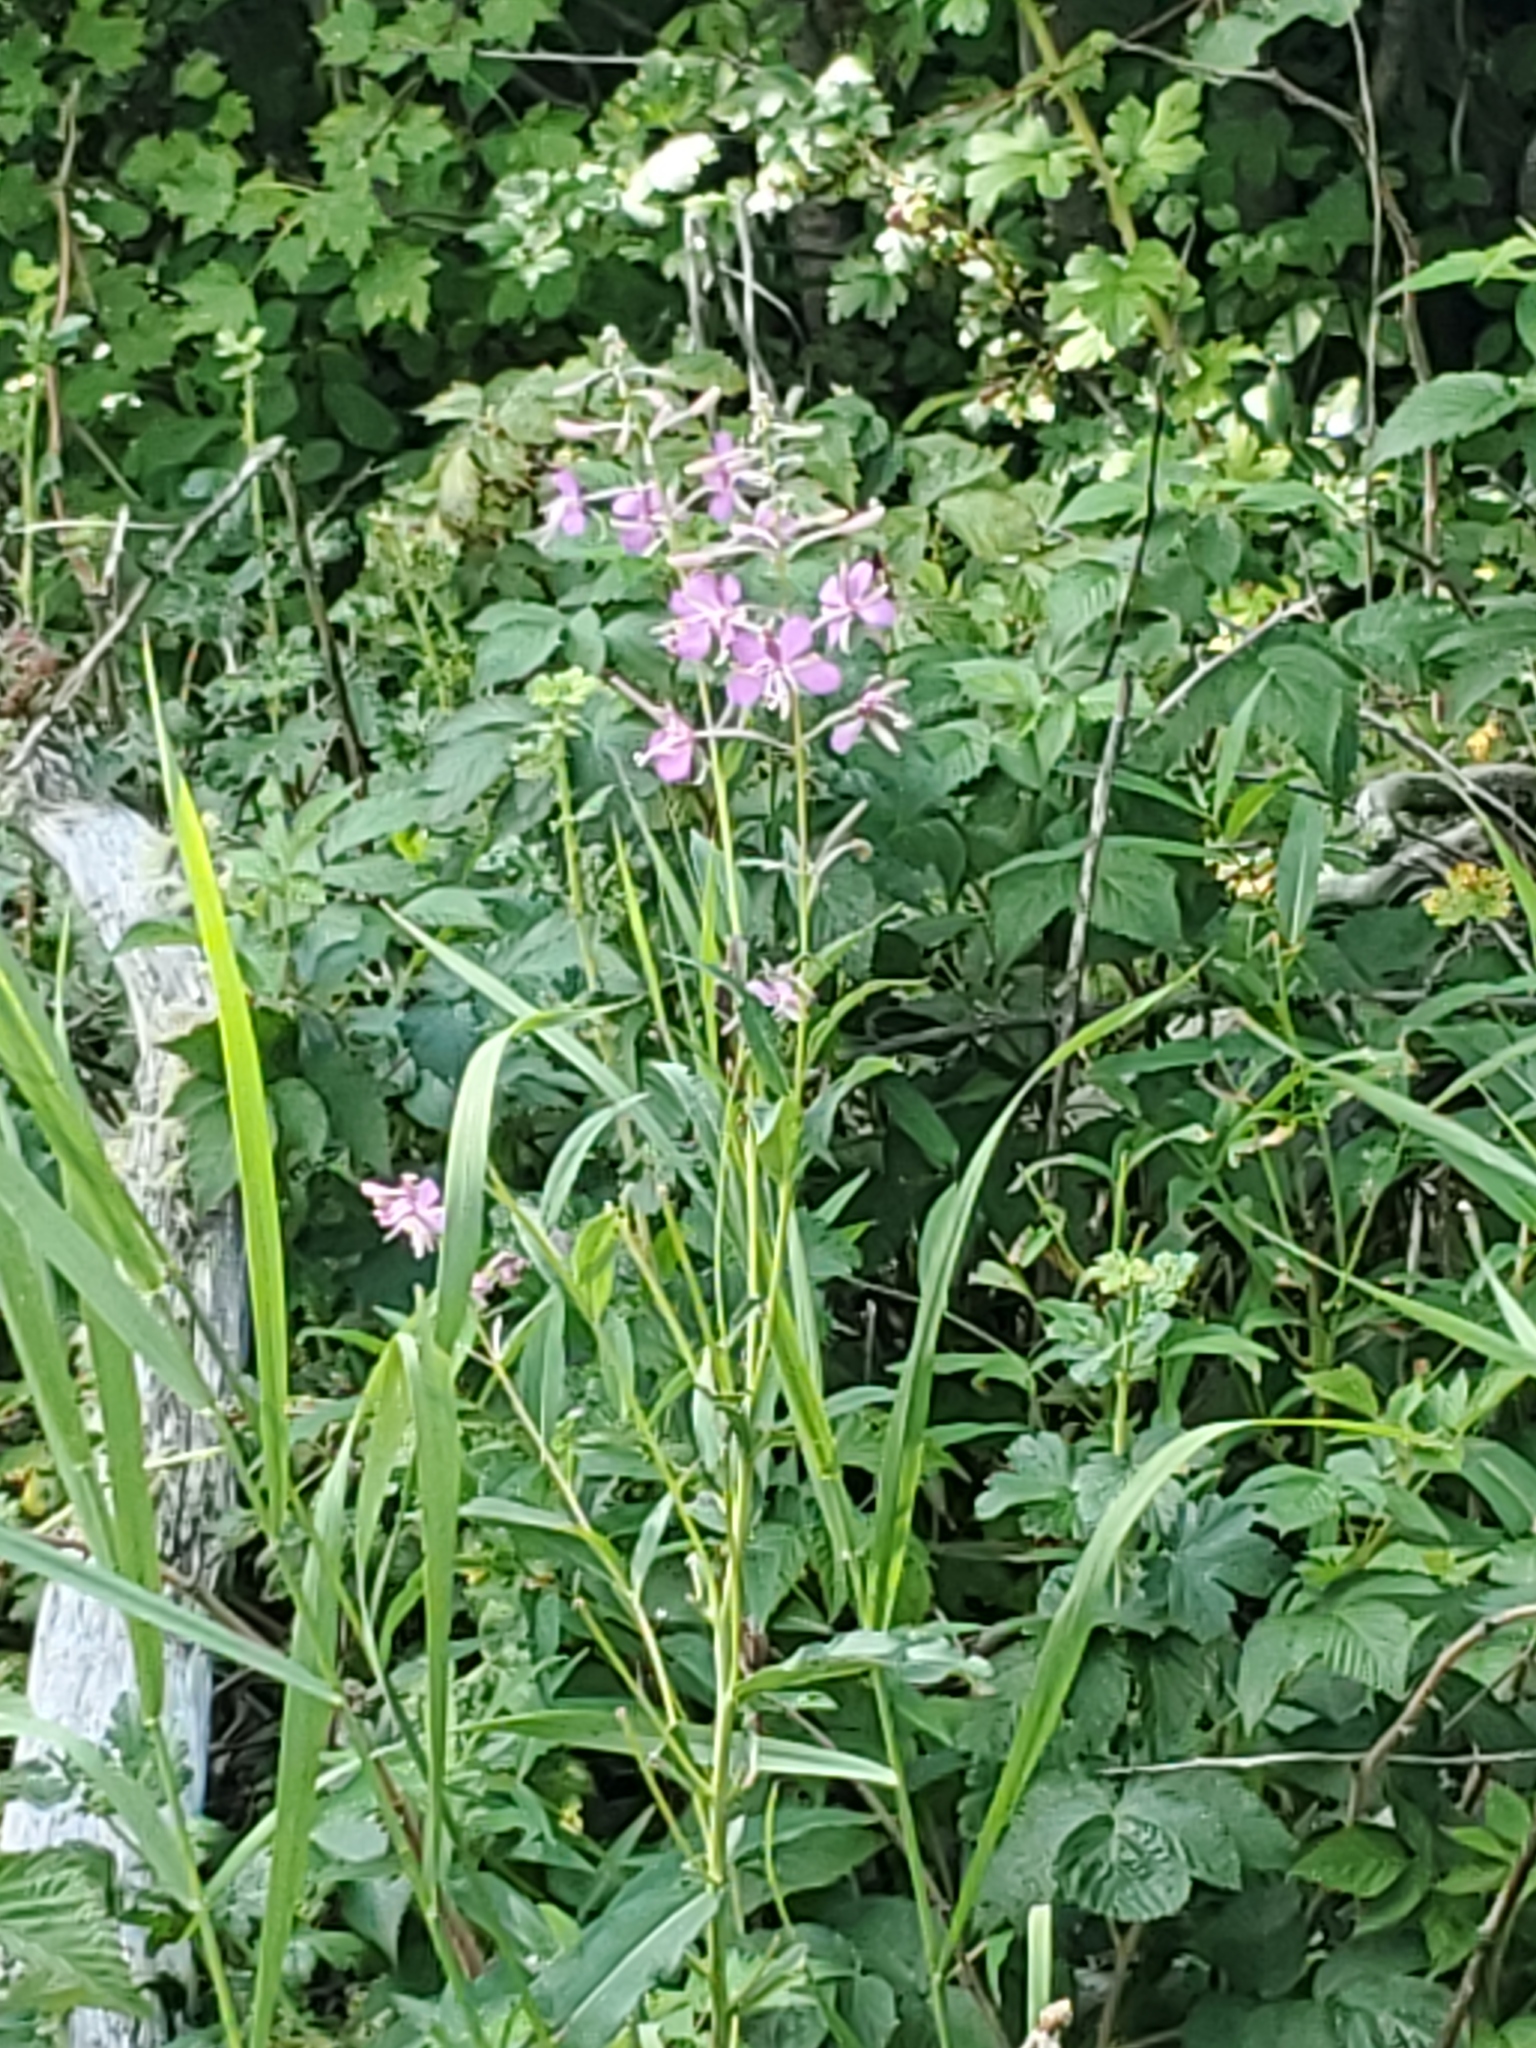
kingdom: Plantae
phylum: Tracheophyta
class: Magnoliopsida
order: Myrtales
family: Onagraceae
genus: Chamaenerion
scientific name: Chamaenerion angustifolium
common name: Fireweed
